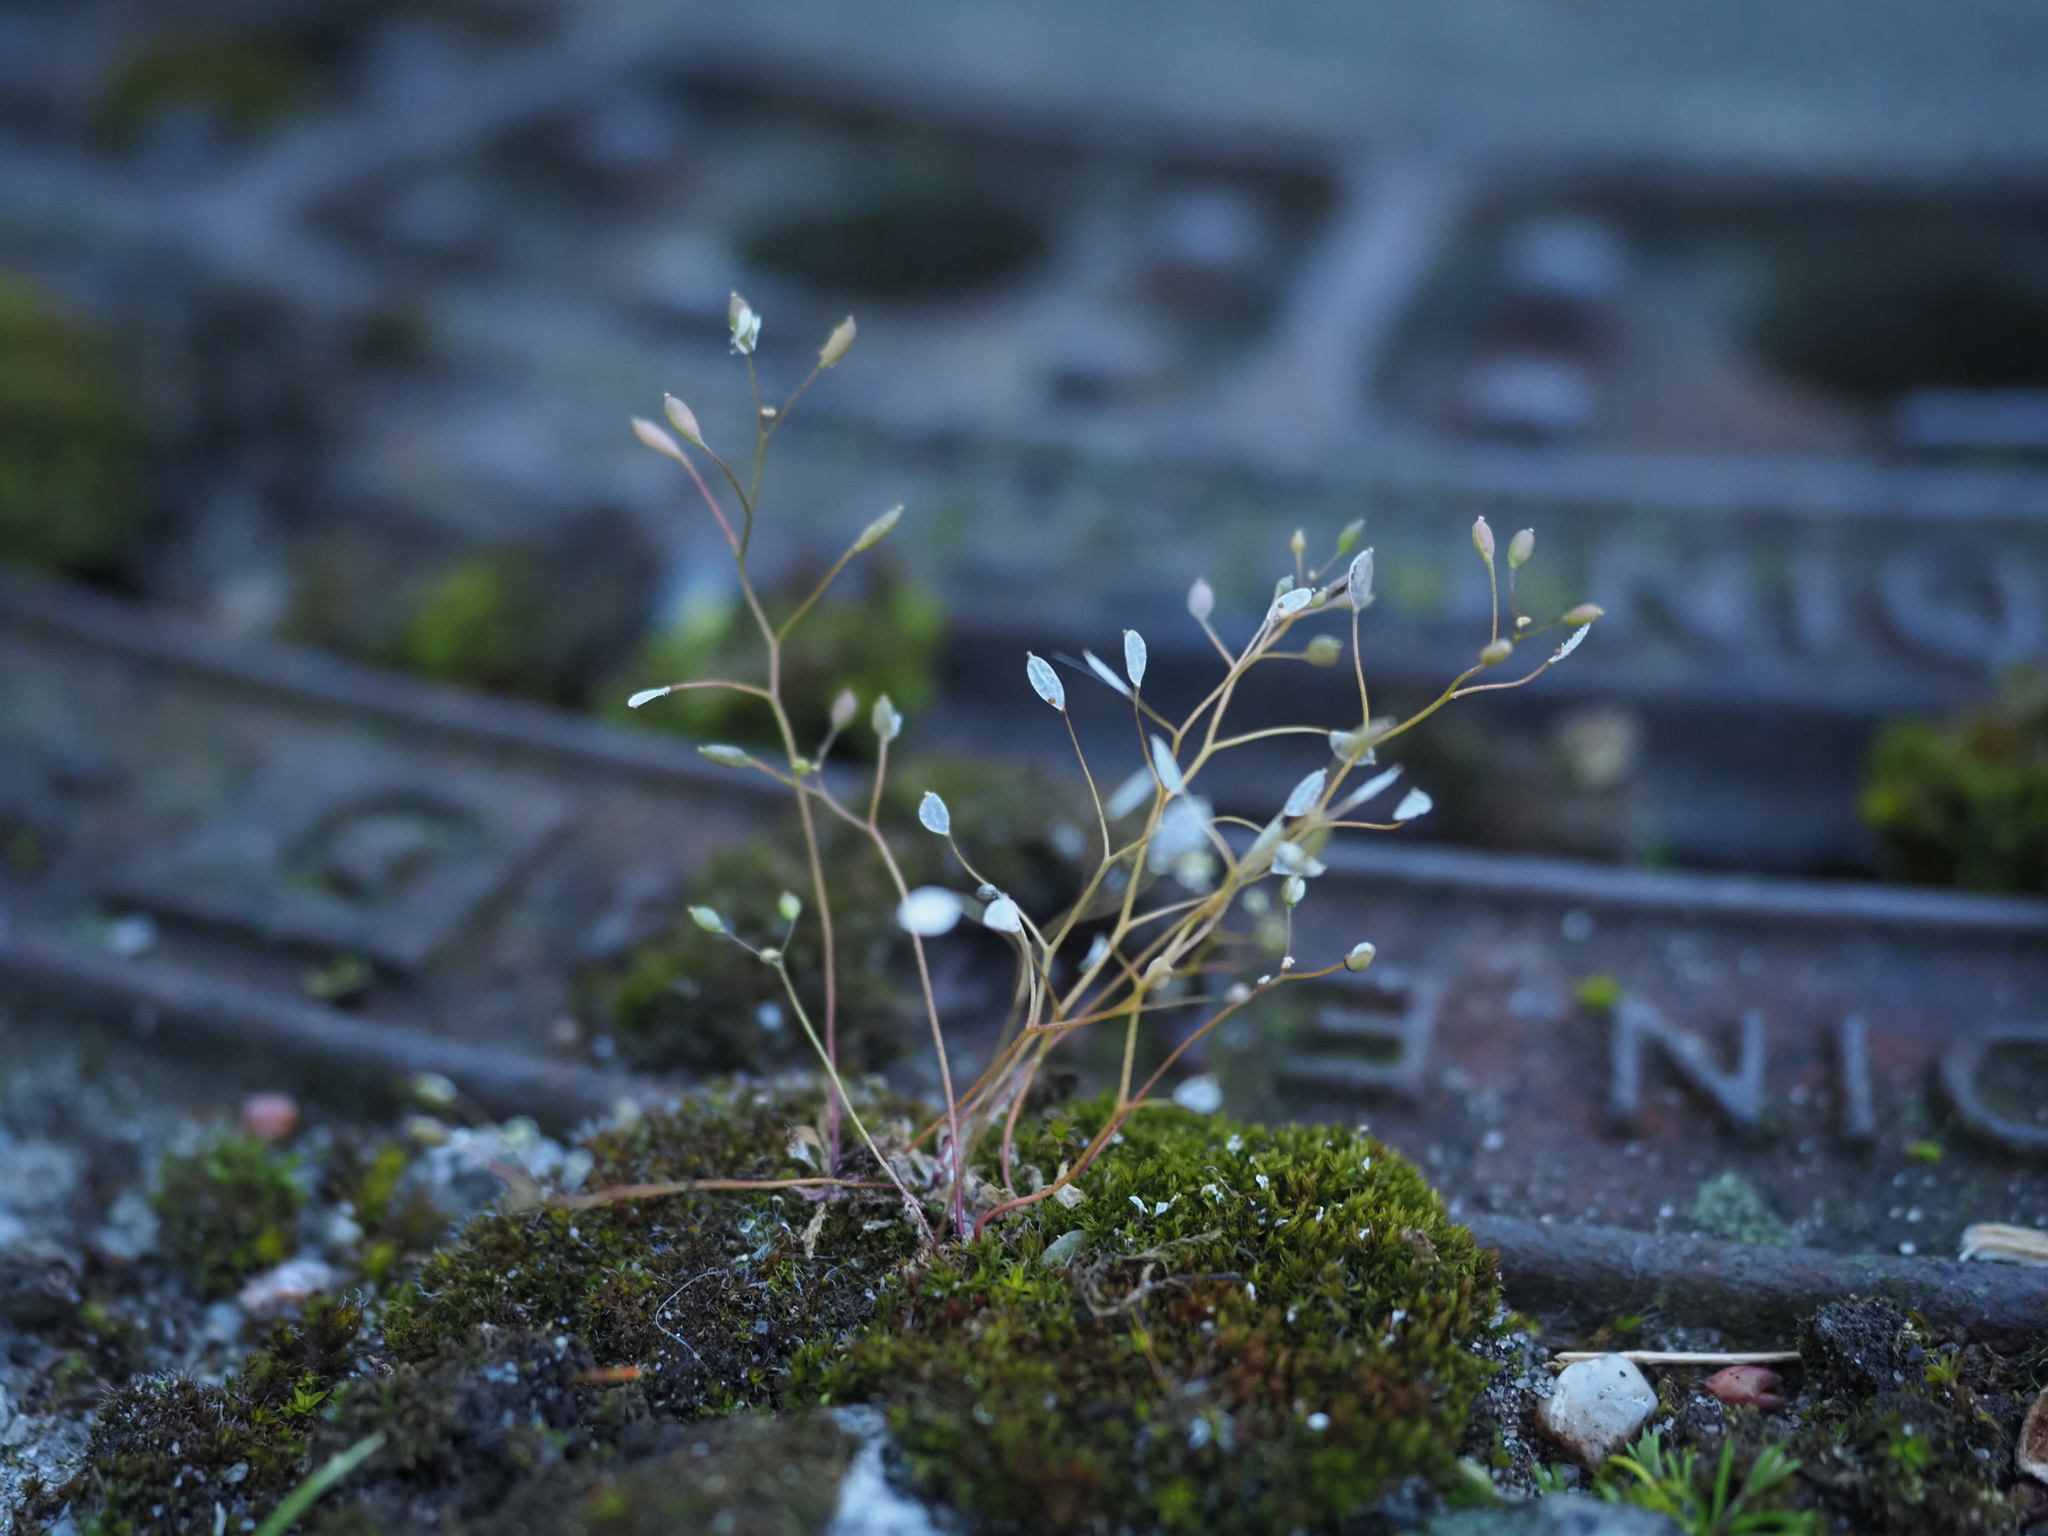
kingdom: Plantae
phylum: Tracheophyta
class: Magnoliopsida
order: Brassicales
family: Brassicaceae
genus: Draba
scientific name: Draba verna
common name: Spring draba
